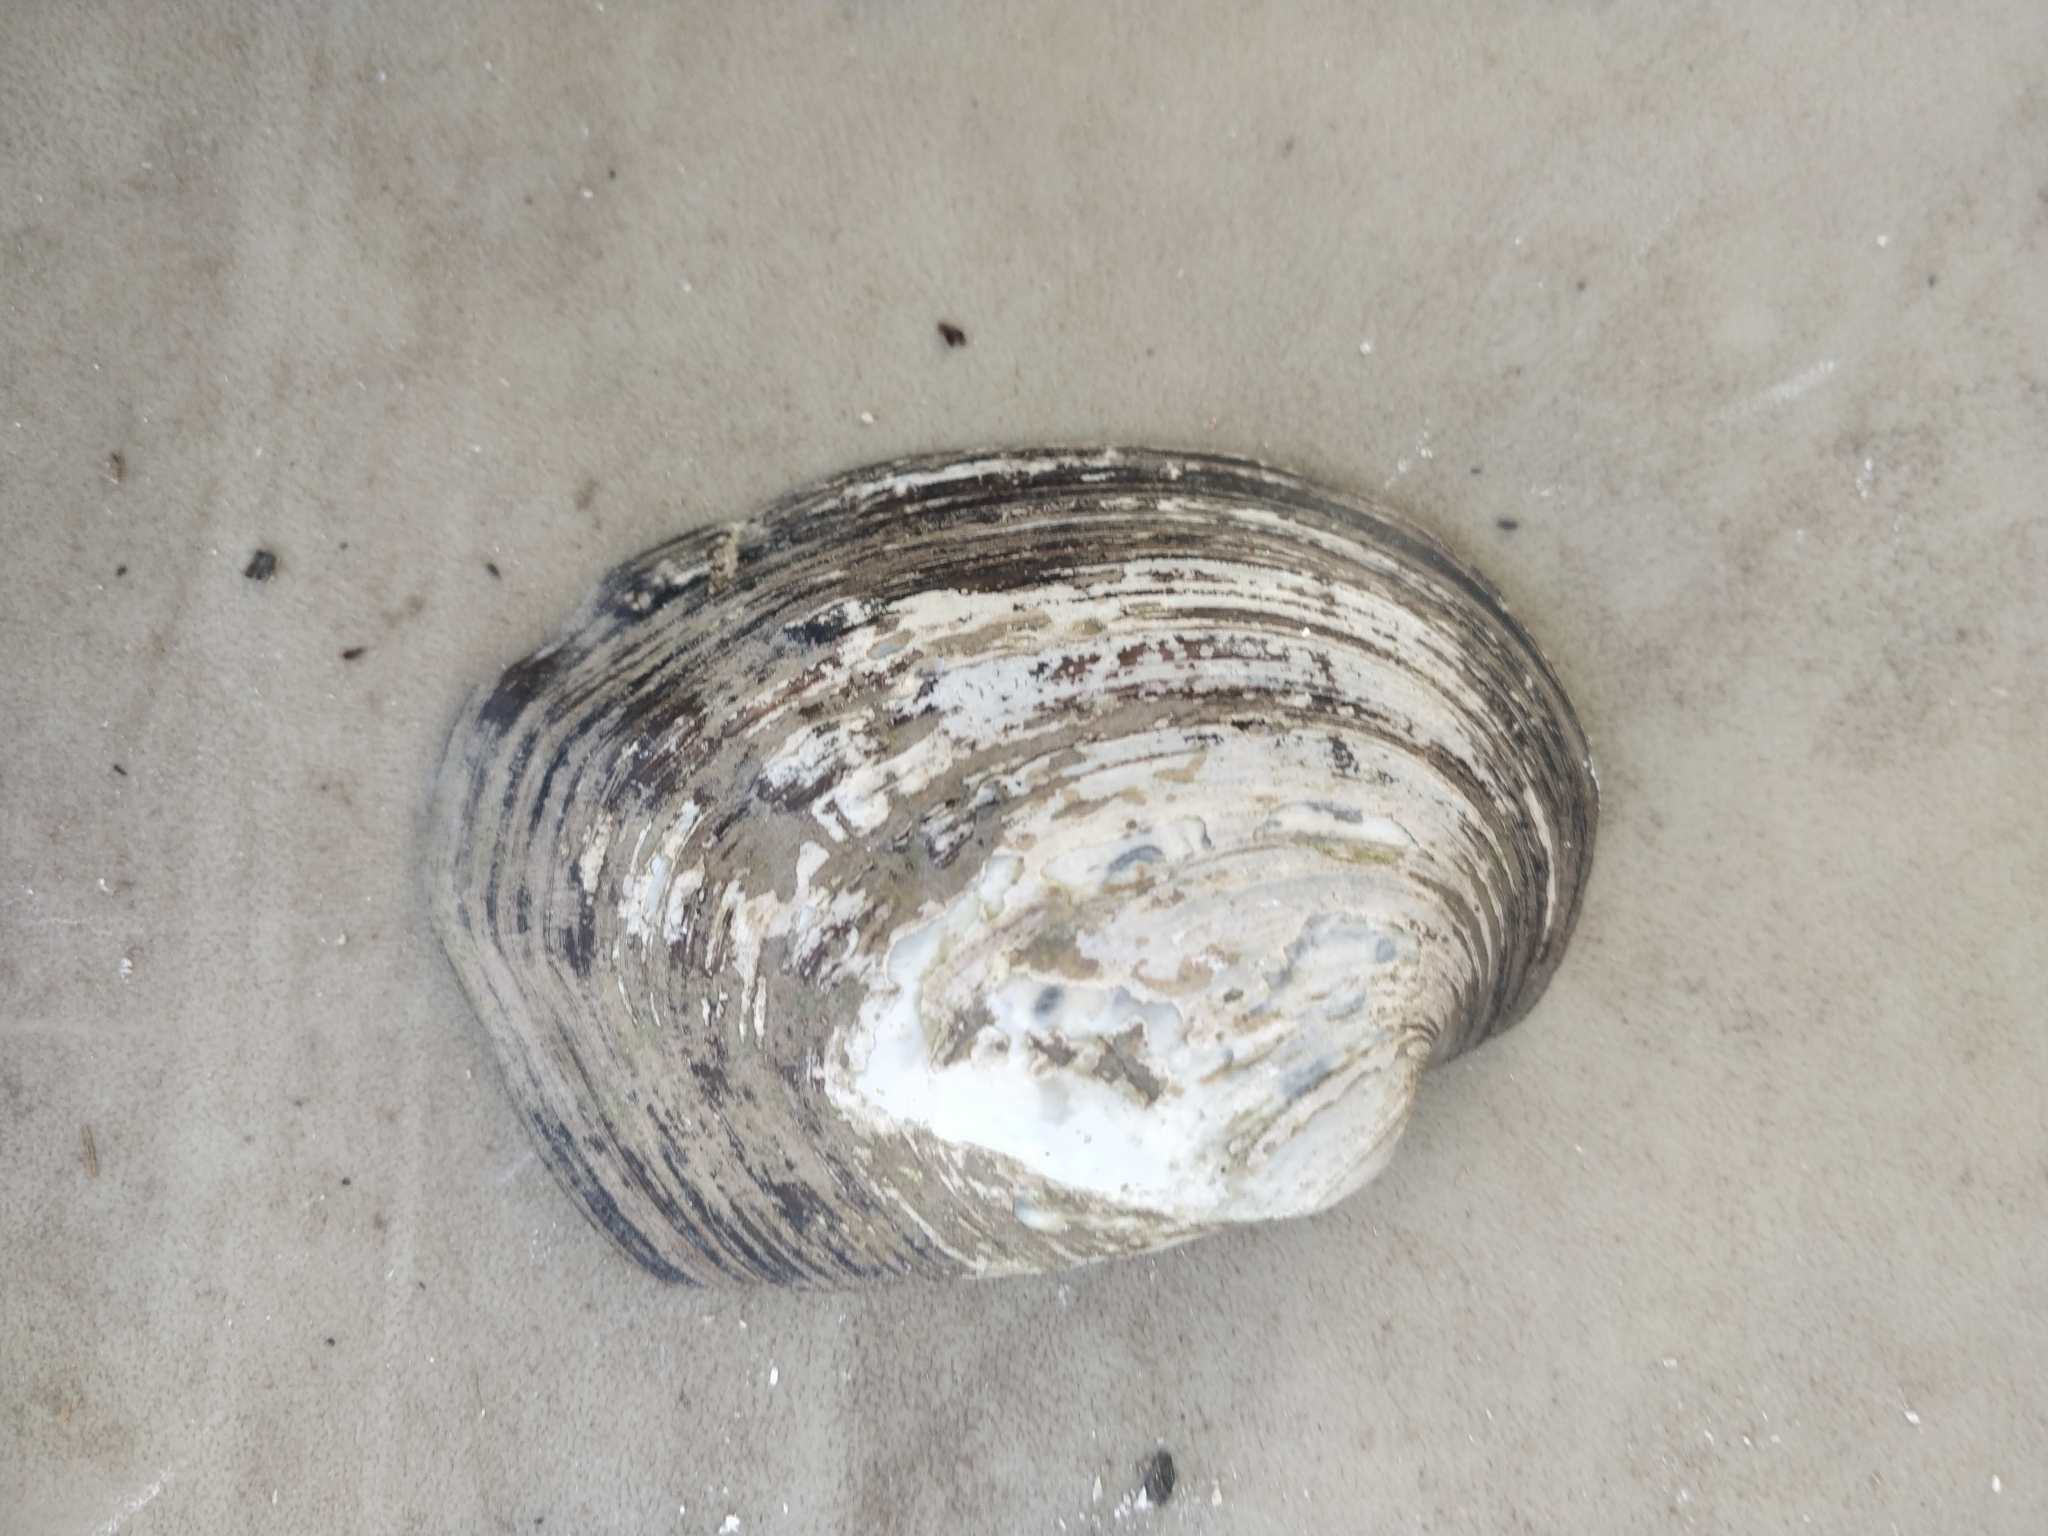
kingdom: Animalia
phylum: Mollusca
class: Bivalvia
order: Unionida
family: Unionidae
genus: Amblema
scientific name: Amblema plicata
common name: Threeridge
